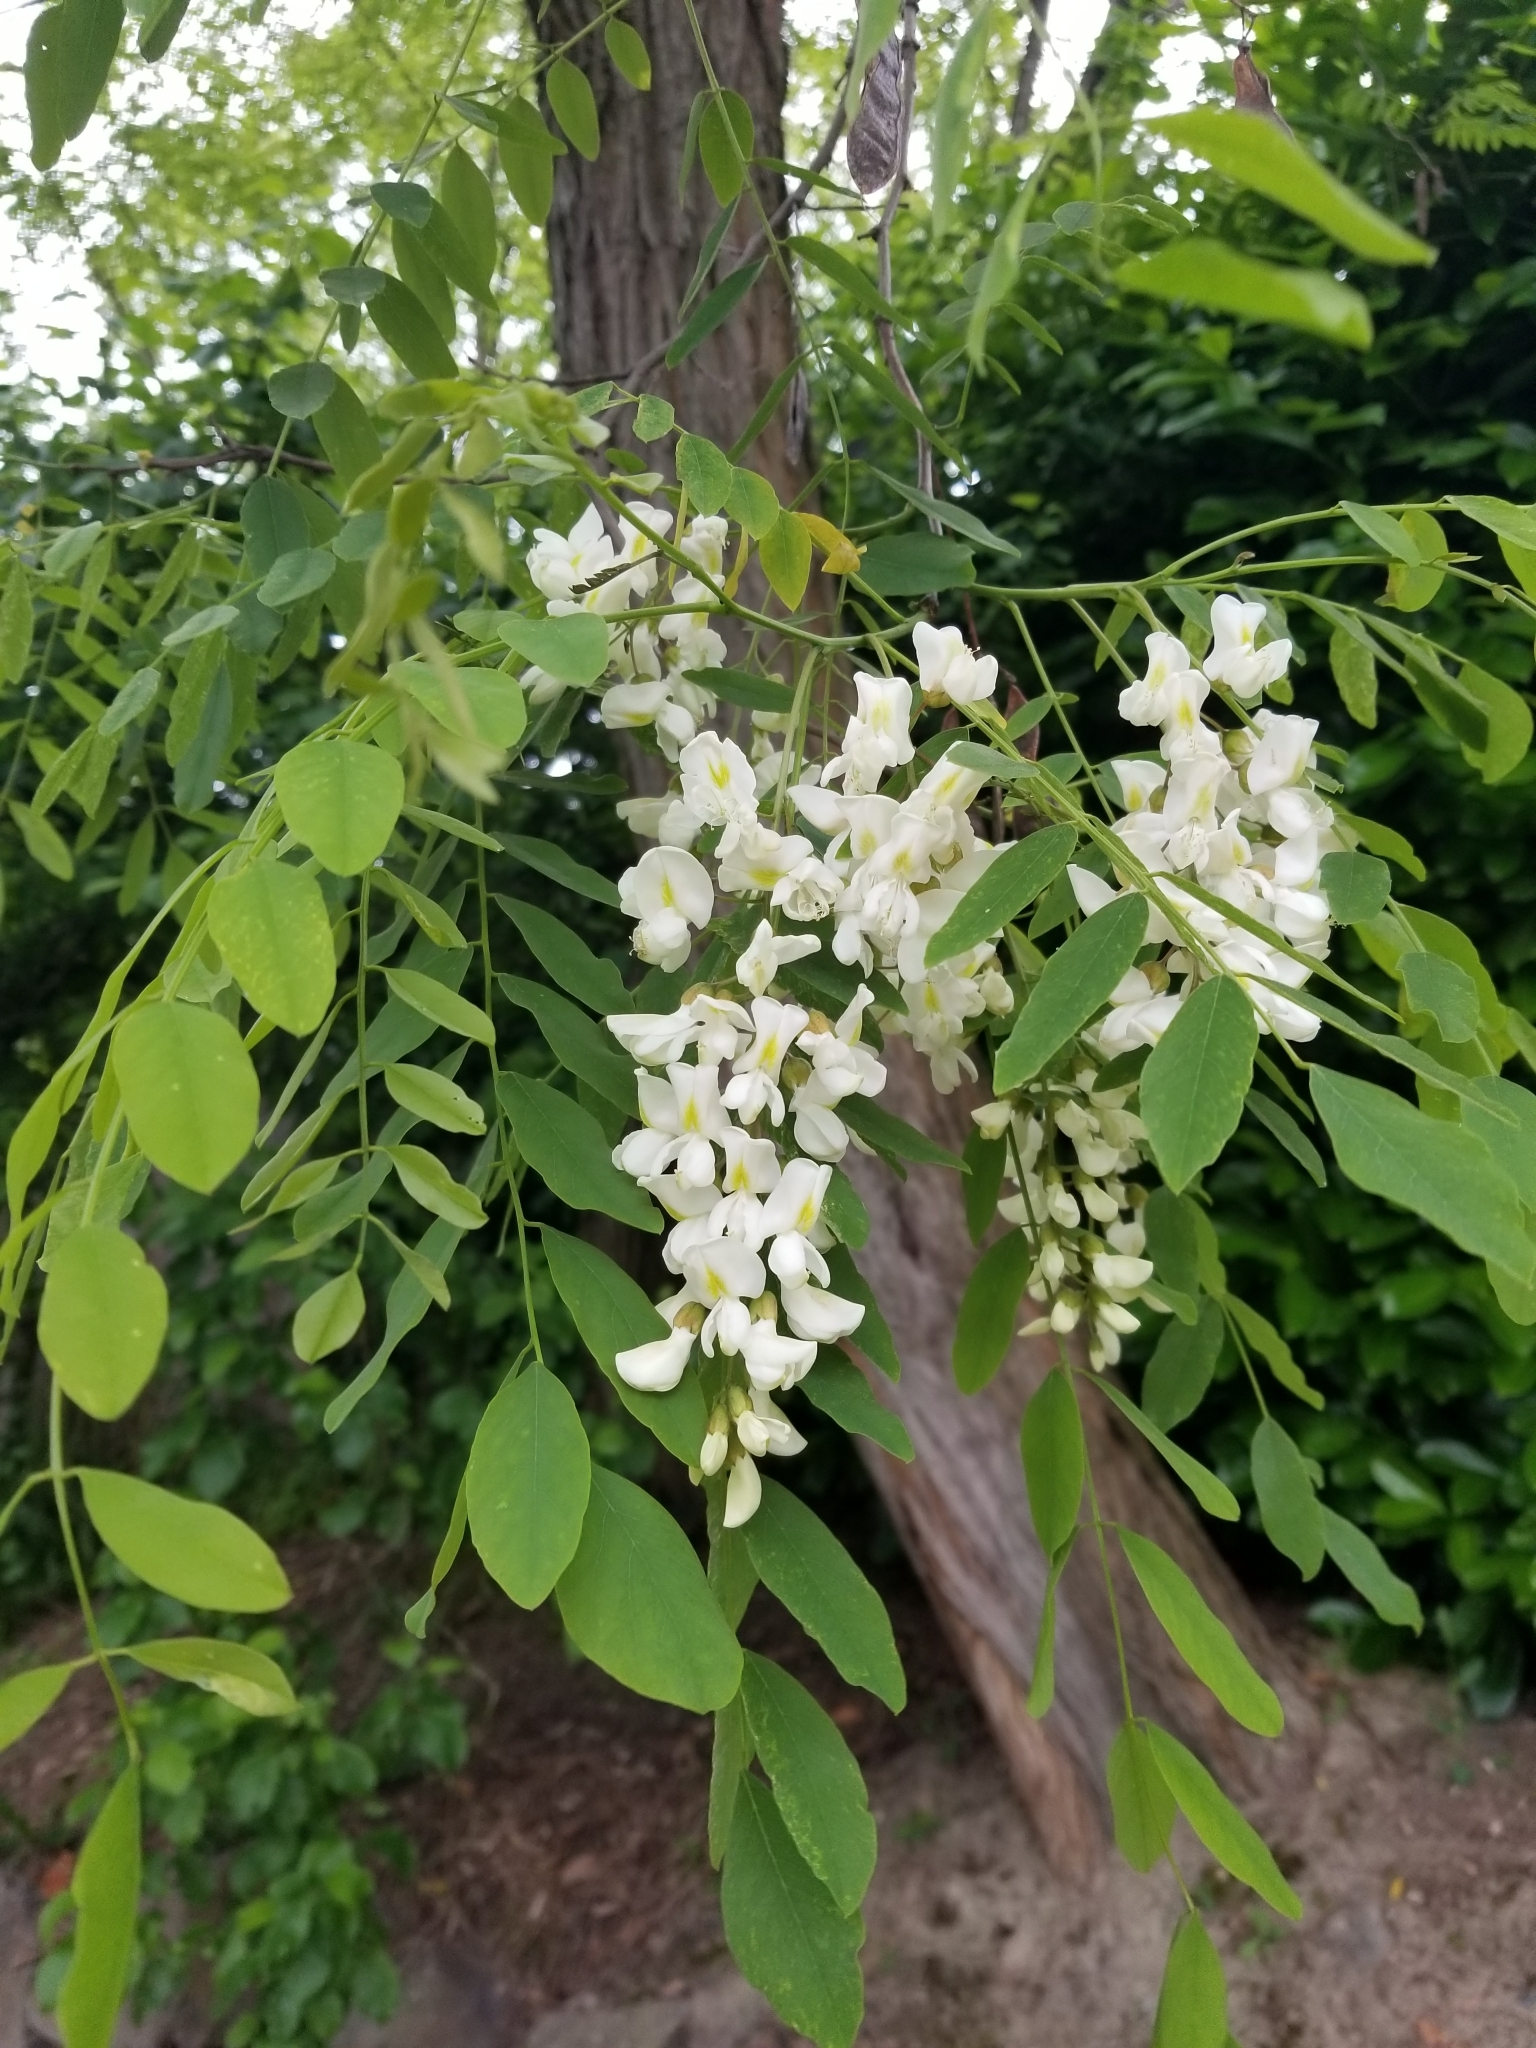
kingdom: Plantae
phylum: Tracheophyta
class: Magnoliopsida
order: Fabales
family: Fabaceae
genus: Robinia
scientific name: Robinia pseudoacacia
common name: Black locust
